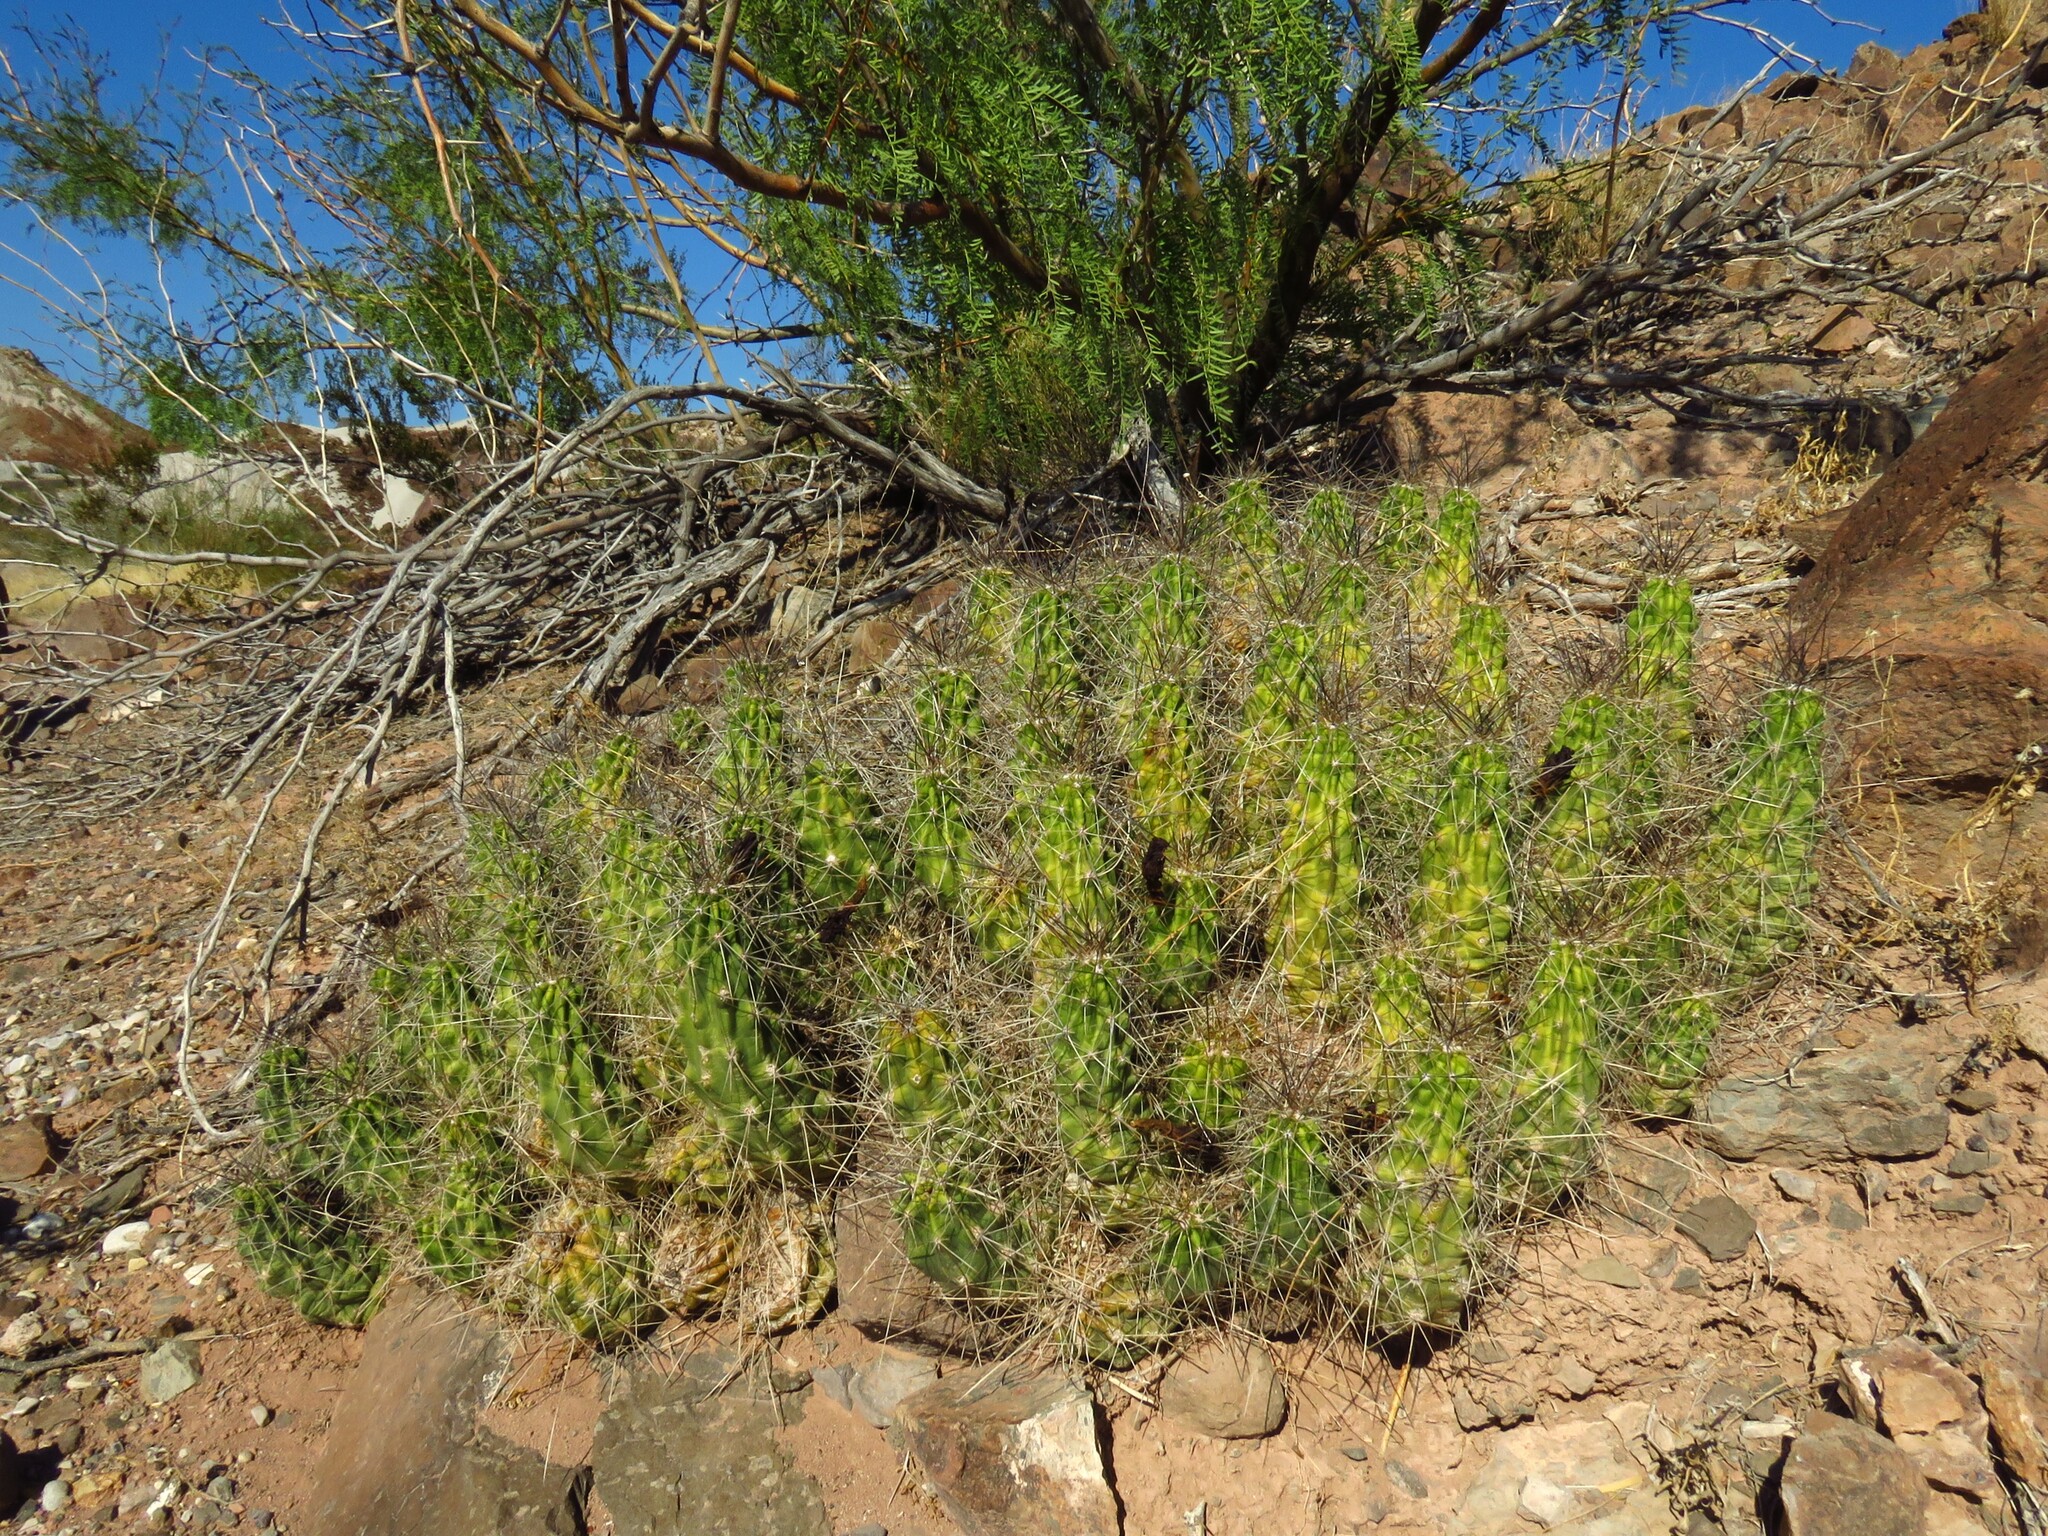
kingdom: Plantae
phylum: Tracheophyta
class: Magnoliopsida
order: Caryophyllales
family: Cactaceae
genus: Echinocereus
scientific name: Echinocereus enneacanthus
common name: Pitaya
